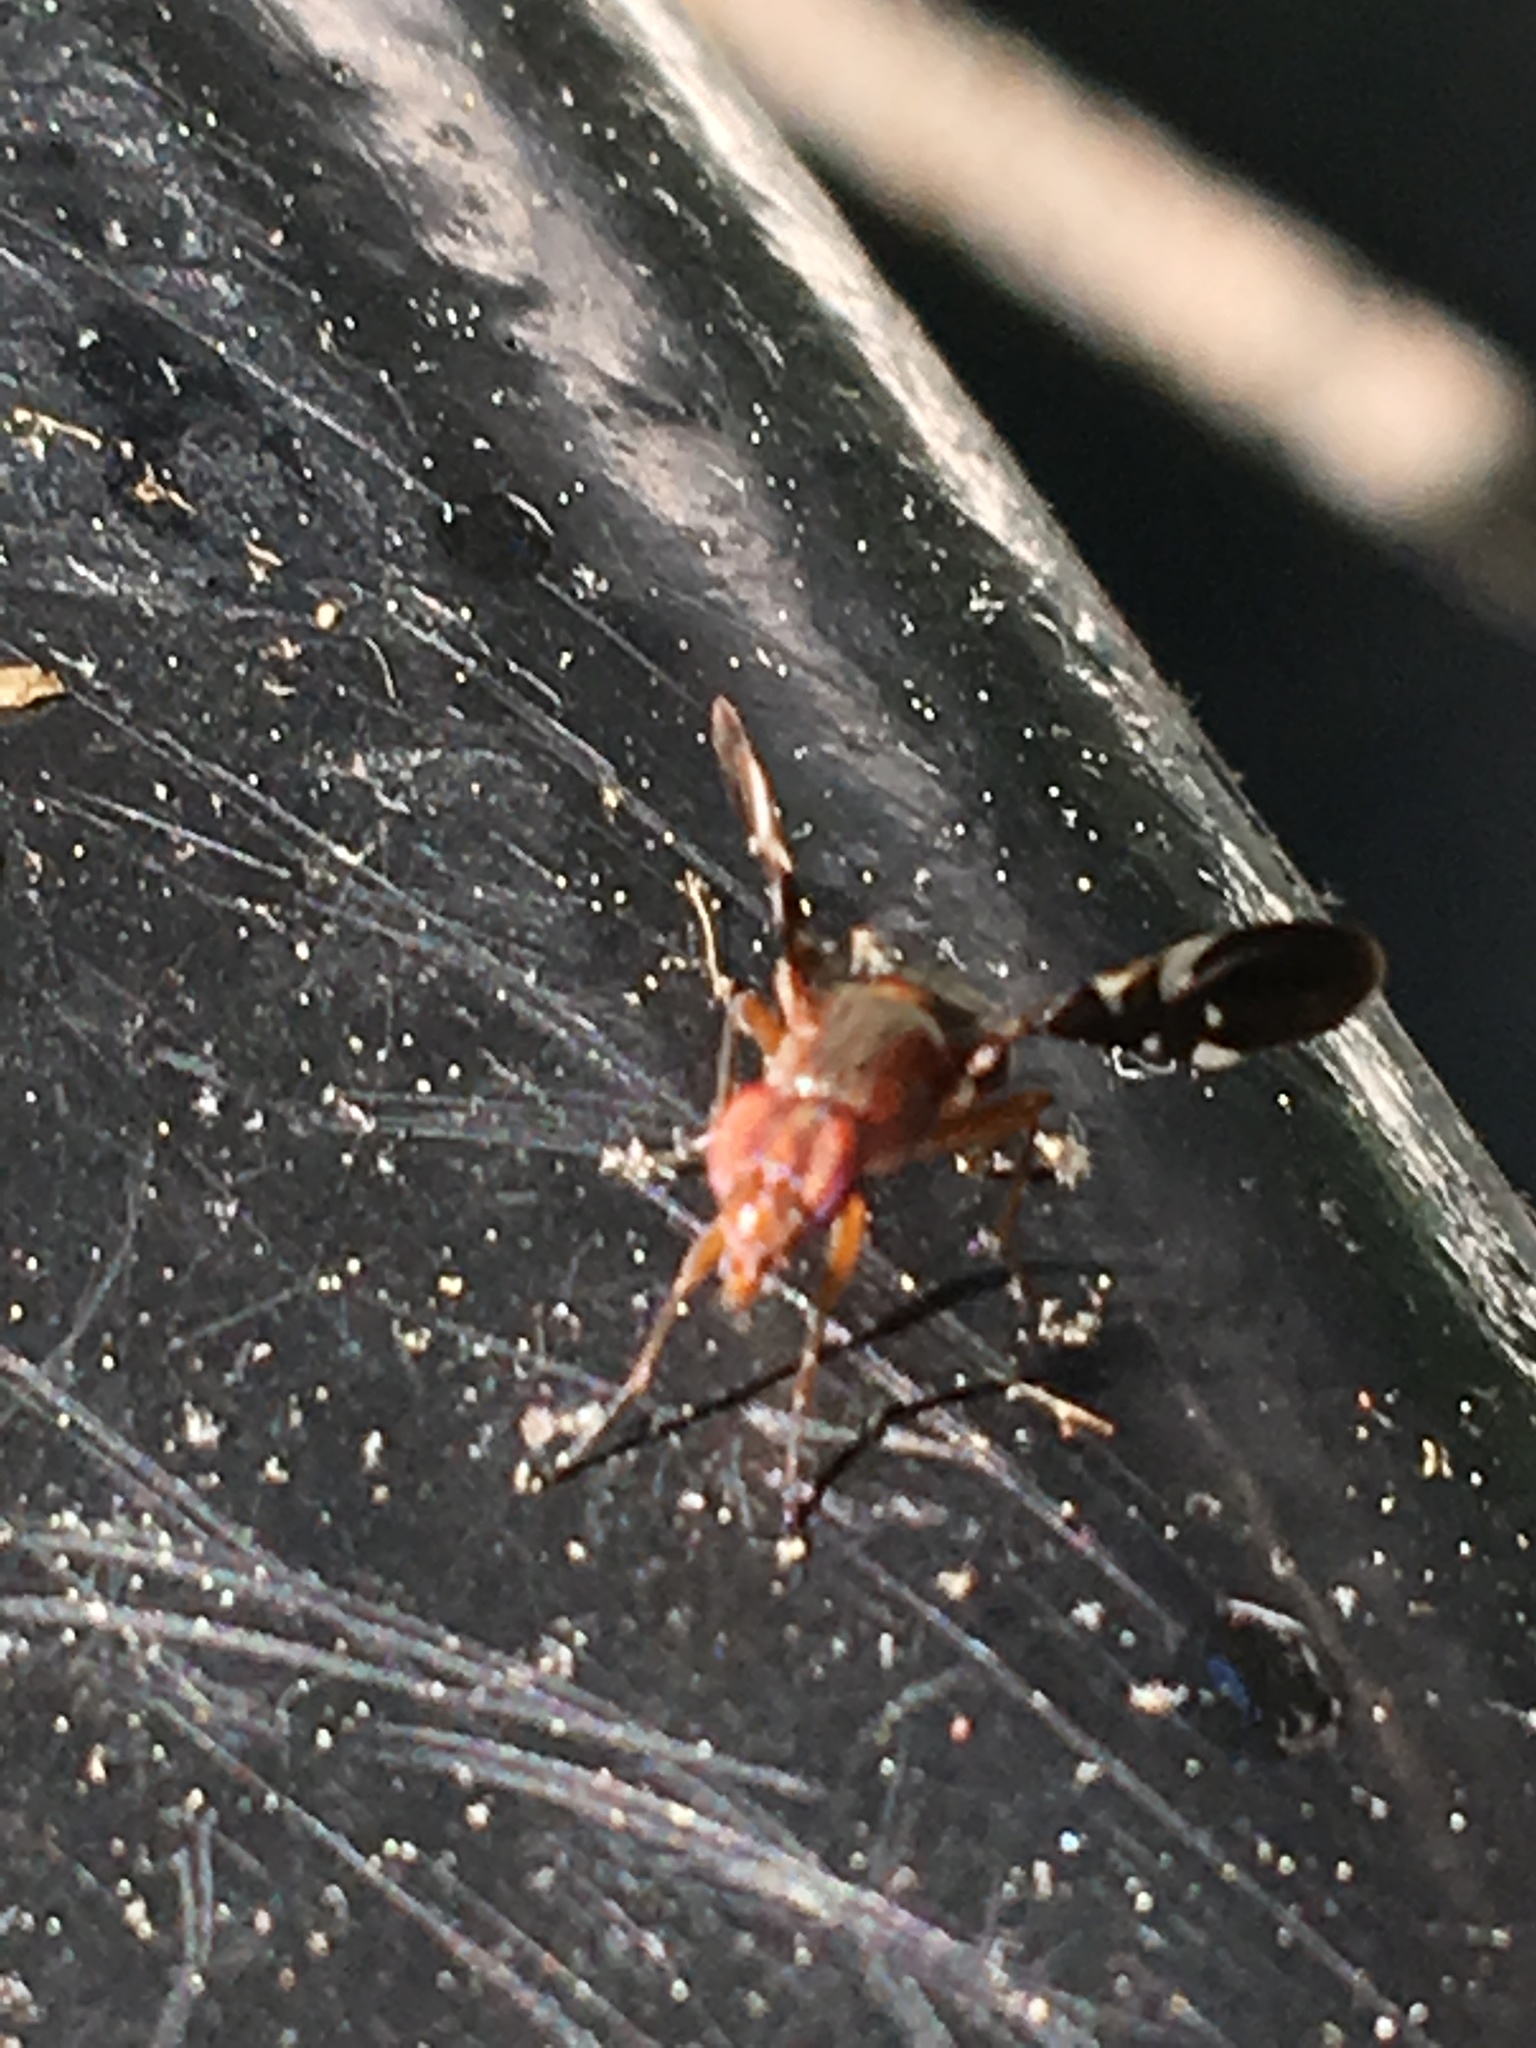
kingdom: Animalia
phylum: Arthropoda
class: Insecta
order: Diptera
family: Ulidiidae
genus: Delphinia
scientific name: Delphinia picta
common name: Common picture-winged fly
